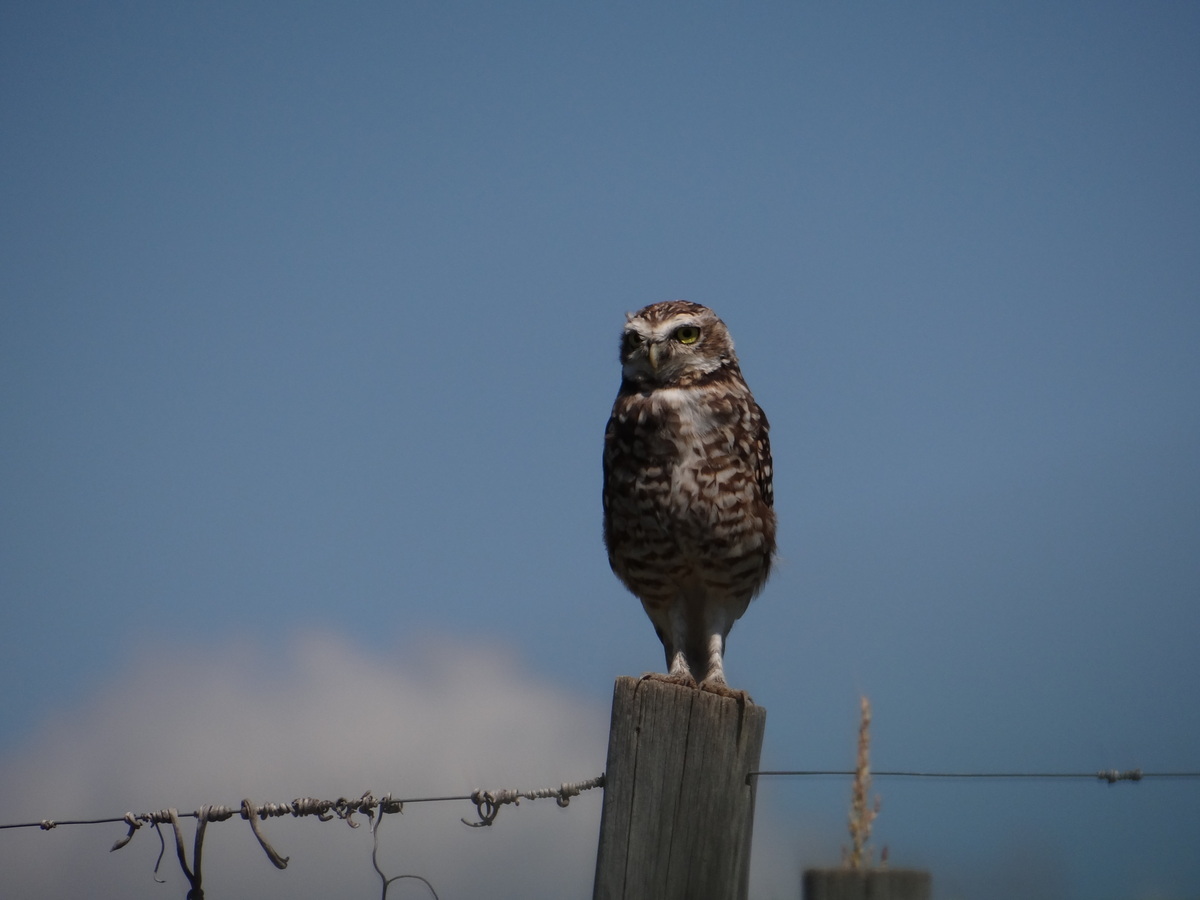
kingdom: Animalia
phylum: Chordata
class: Aves
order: Strigiformes
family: Strigidae
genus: Athene
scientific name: Athene cunicularia
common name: Burrowing owl
